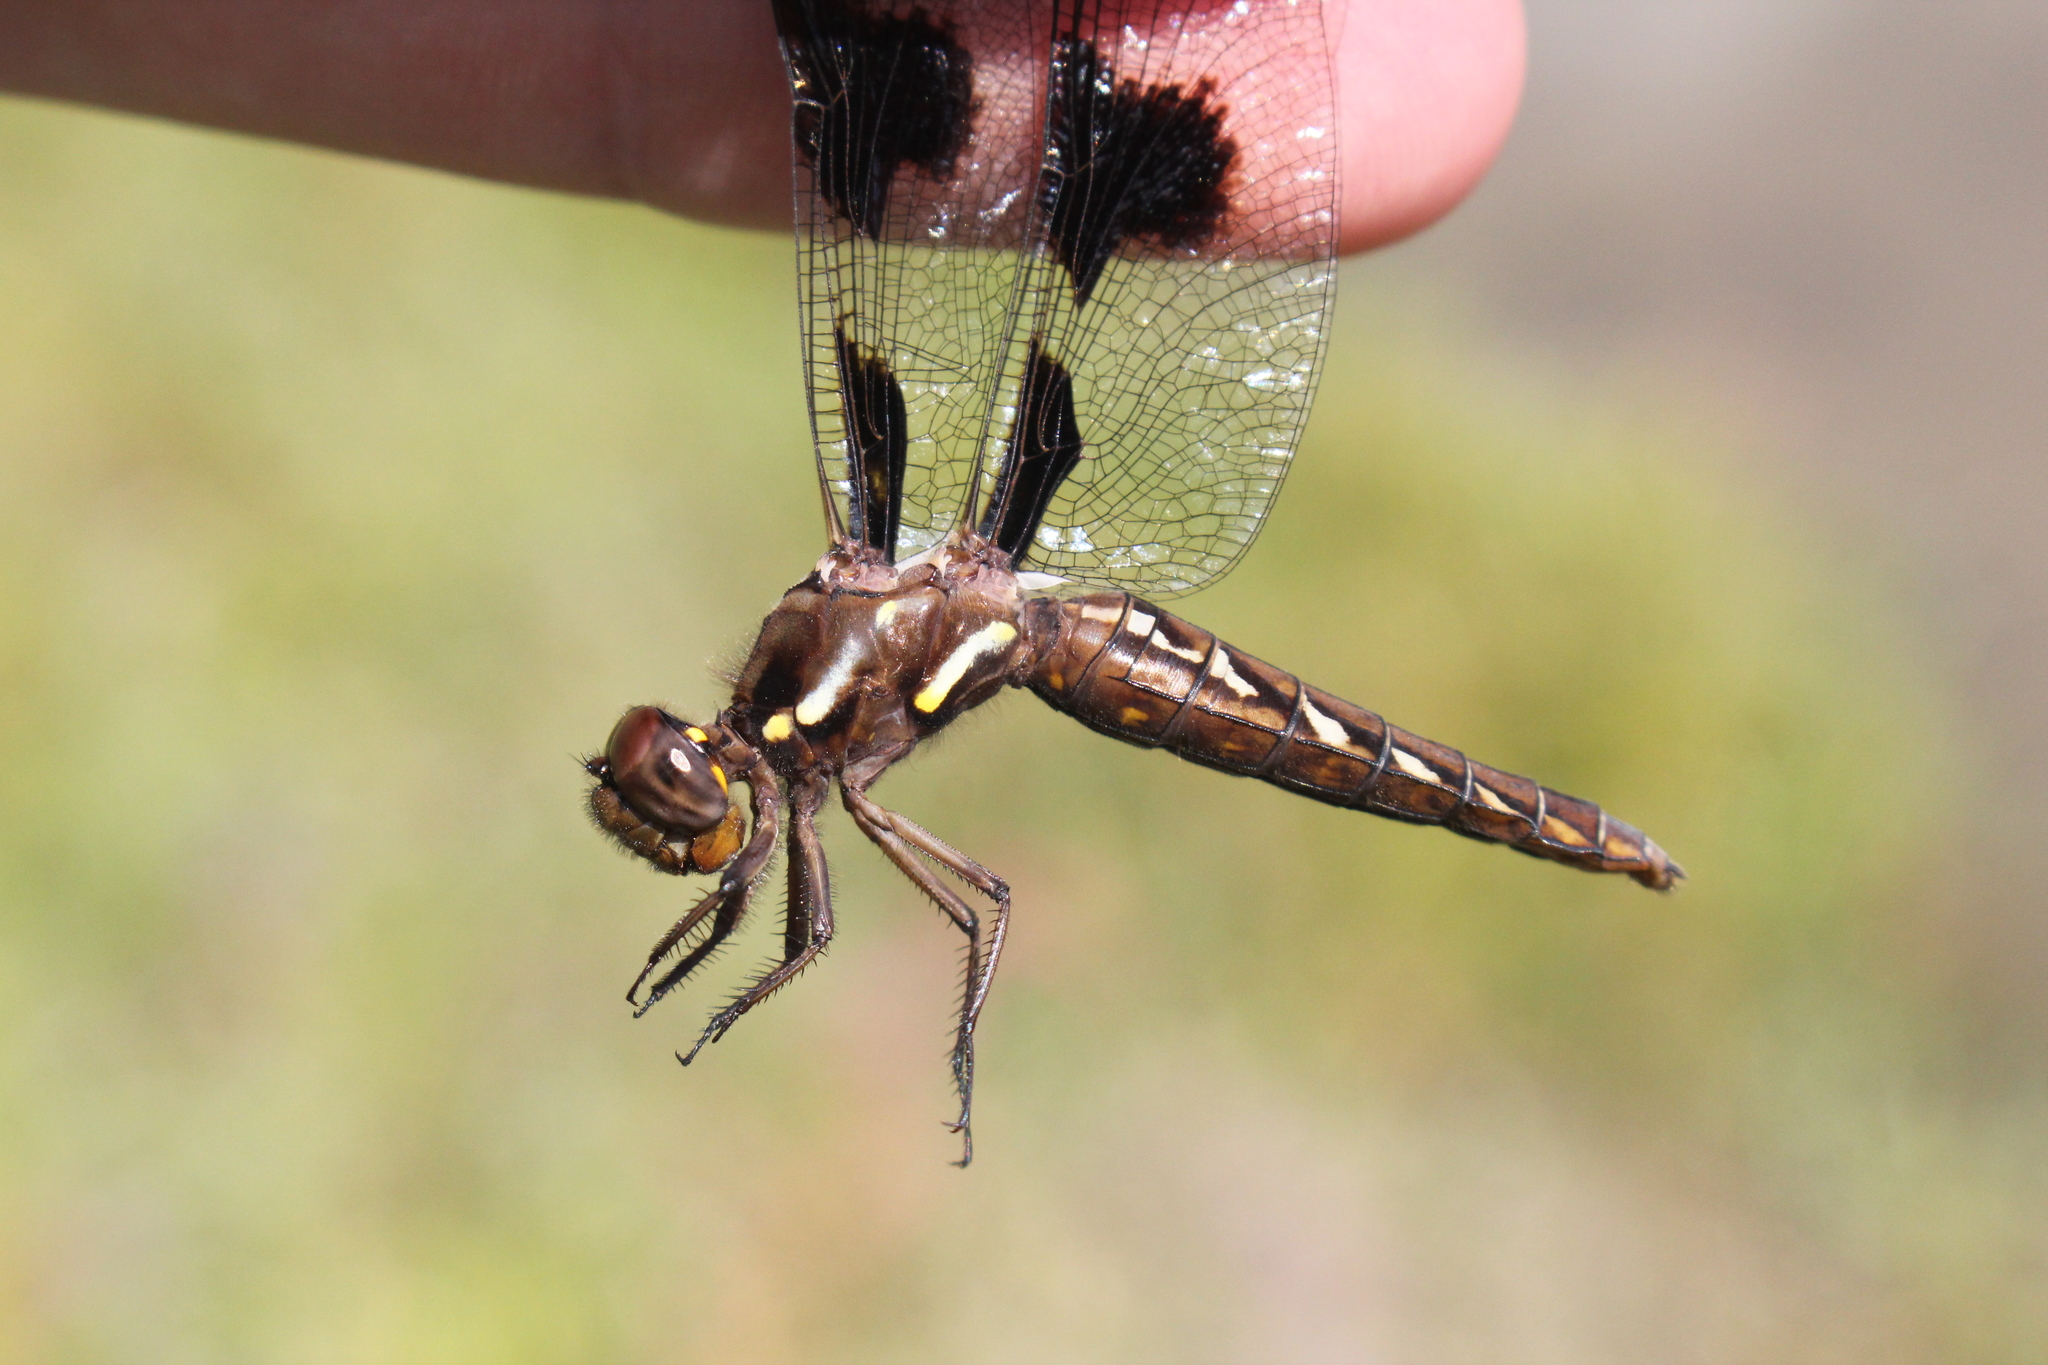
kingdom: Animalia
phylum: Arthropoda
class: Insecta
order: Odonata
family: Libellulidae
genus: Plathemis
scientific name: Plathemis lydia
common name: Common whitetail
